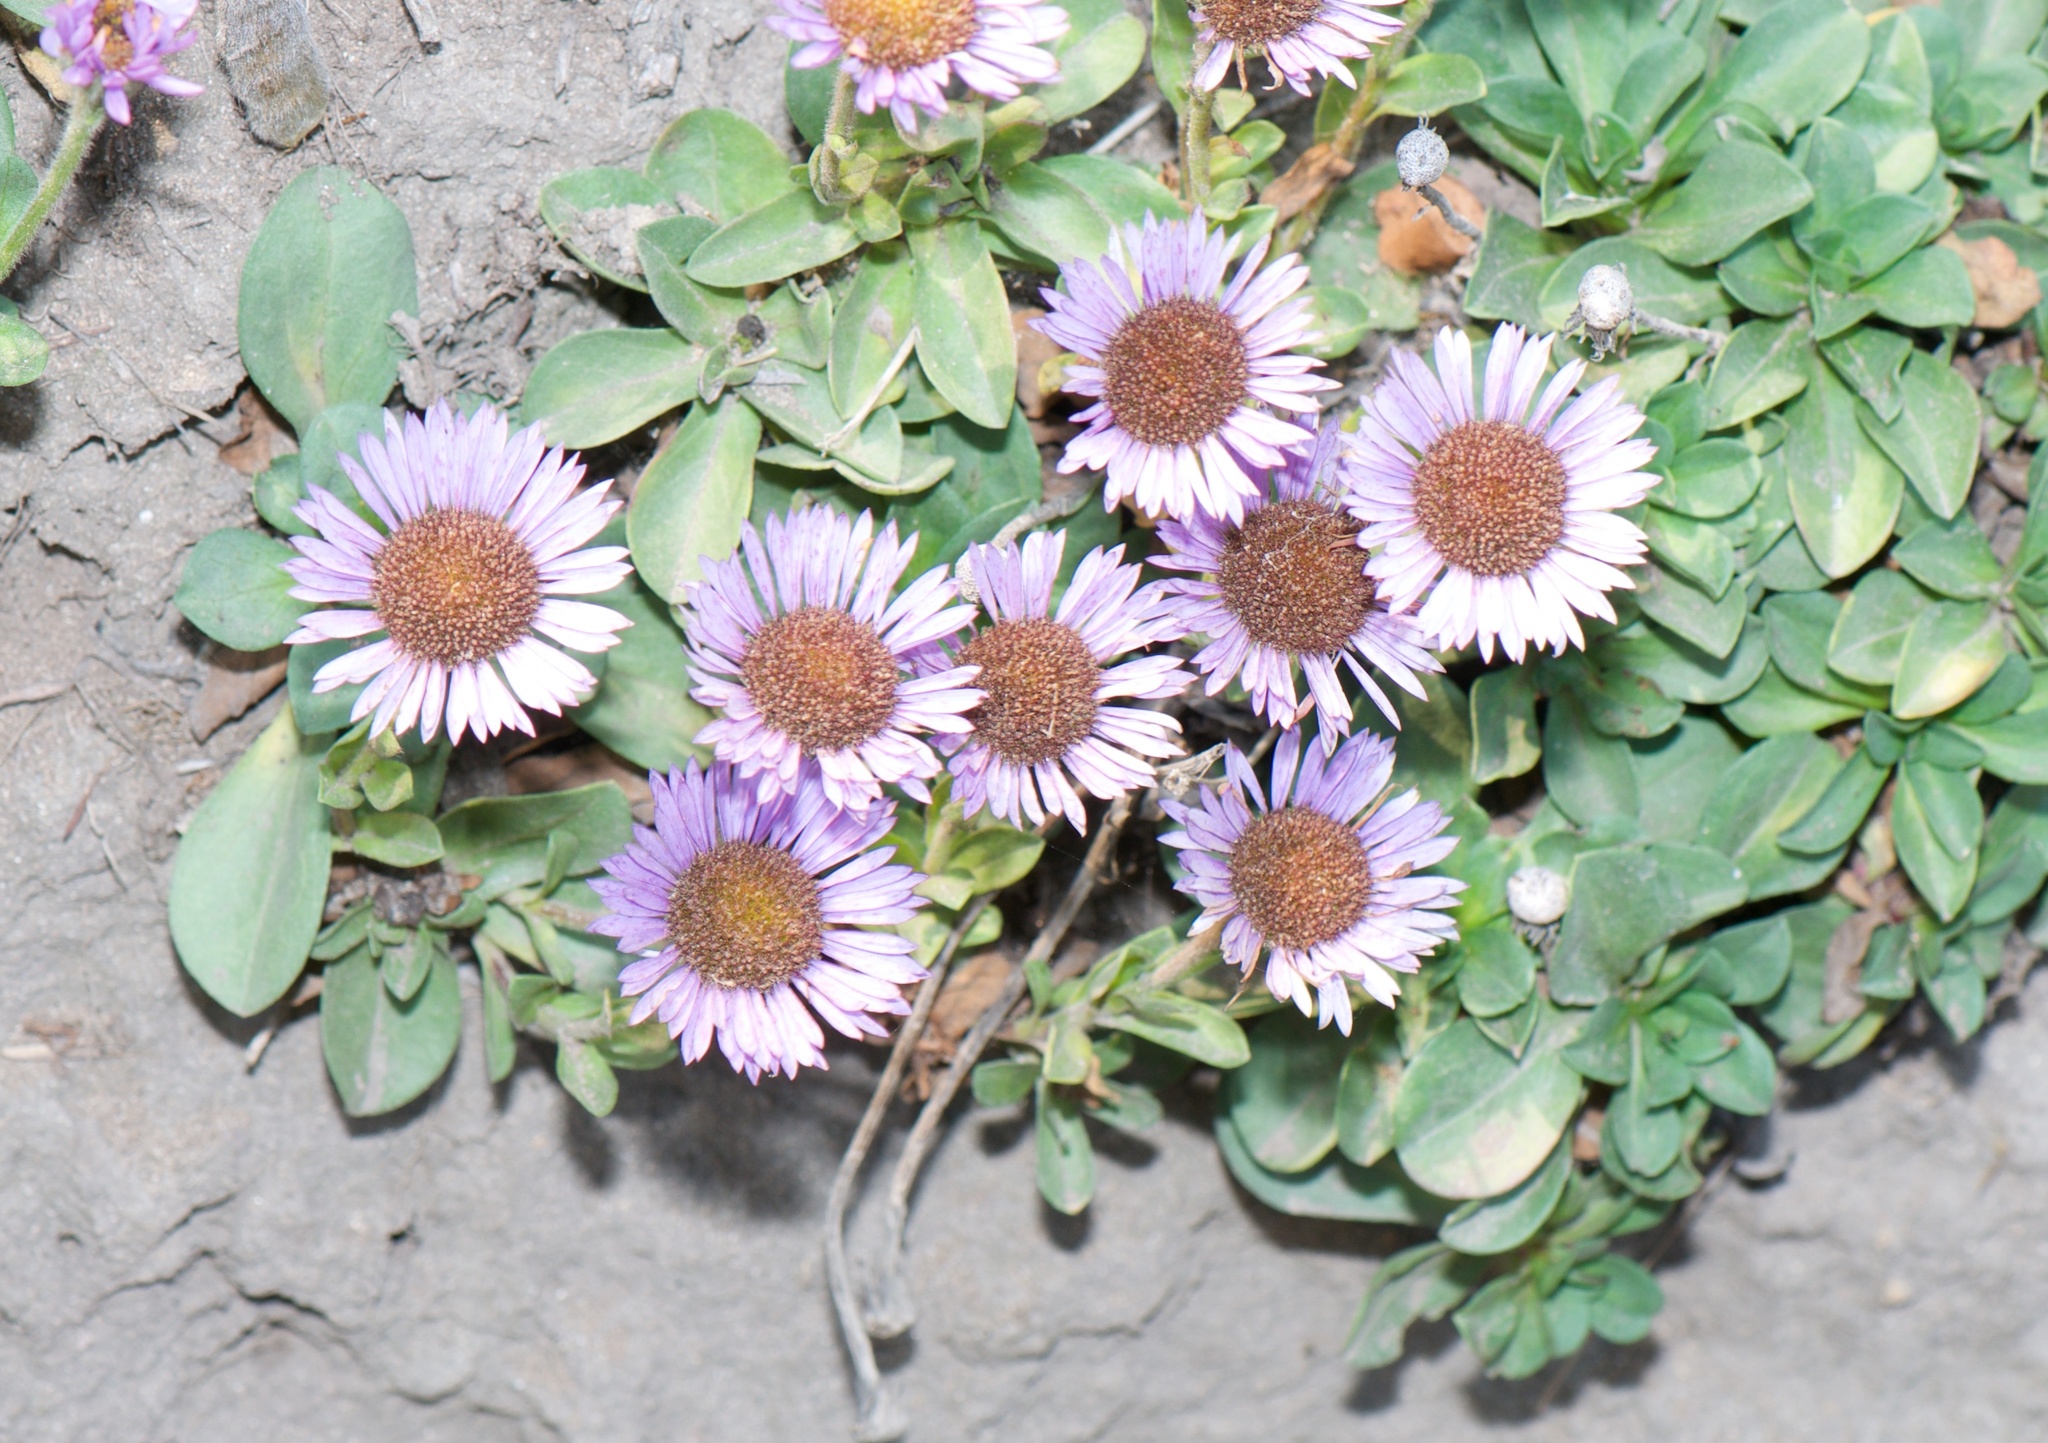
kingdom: Plantae
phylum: Tracheophyta
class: Magnoliopsida
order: Asterales
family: Asteraceae
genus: Erigeron
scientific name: Erigeron glaucus
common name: Seaside daisy
